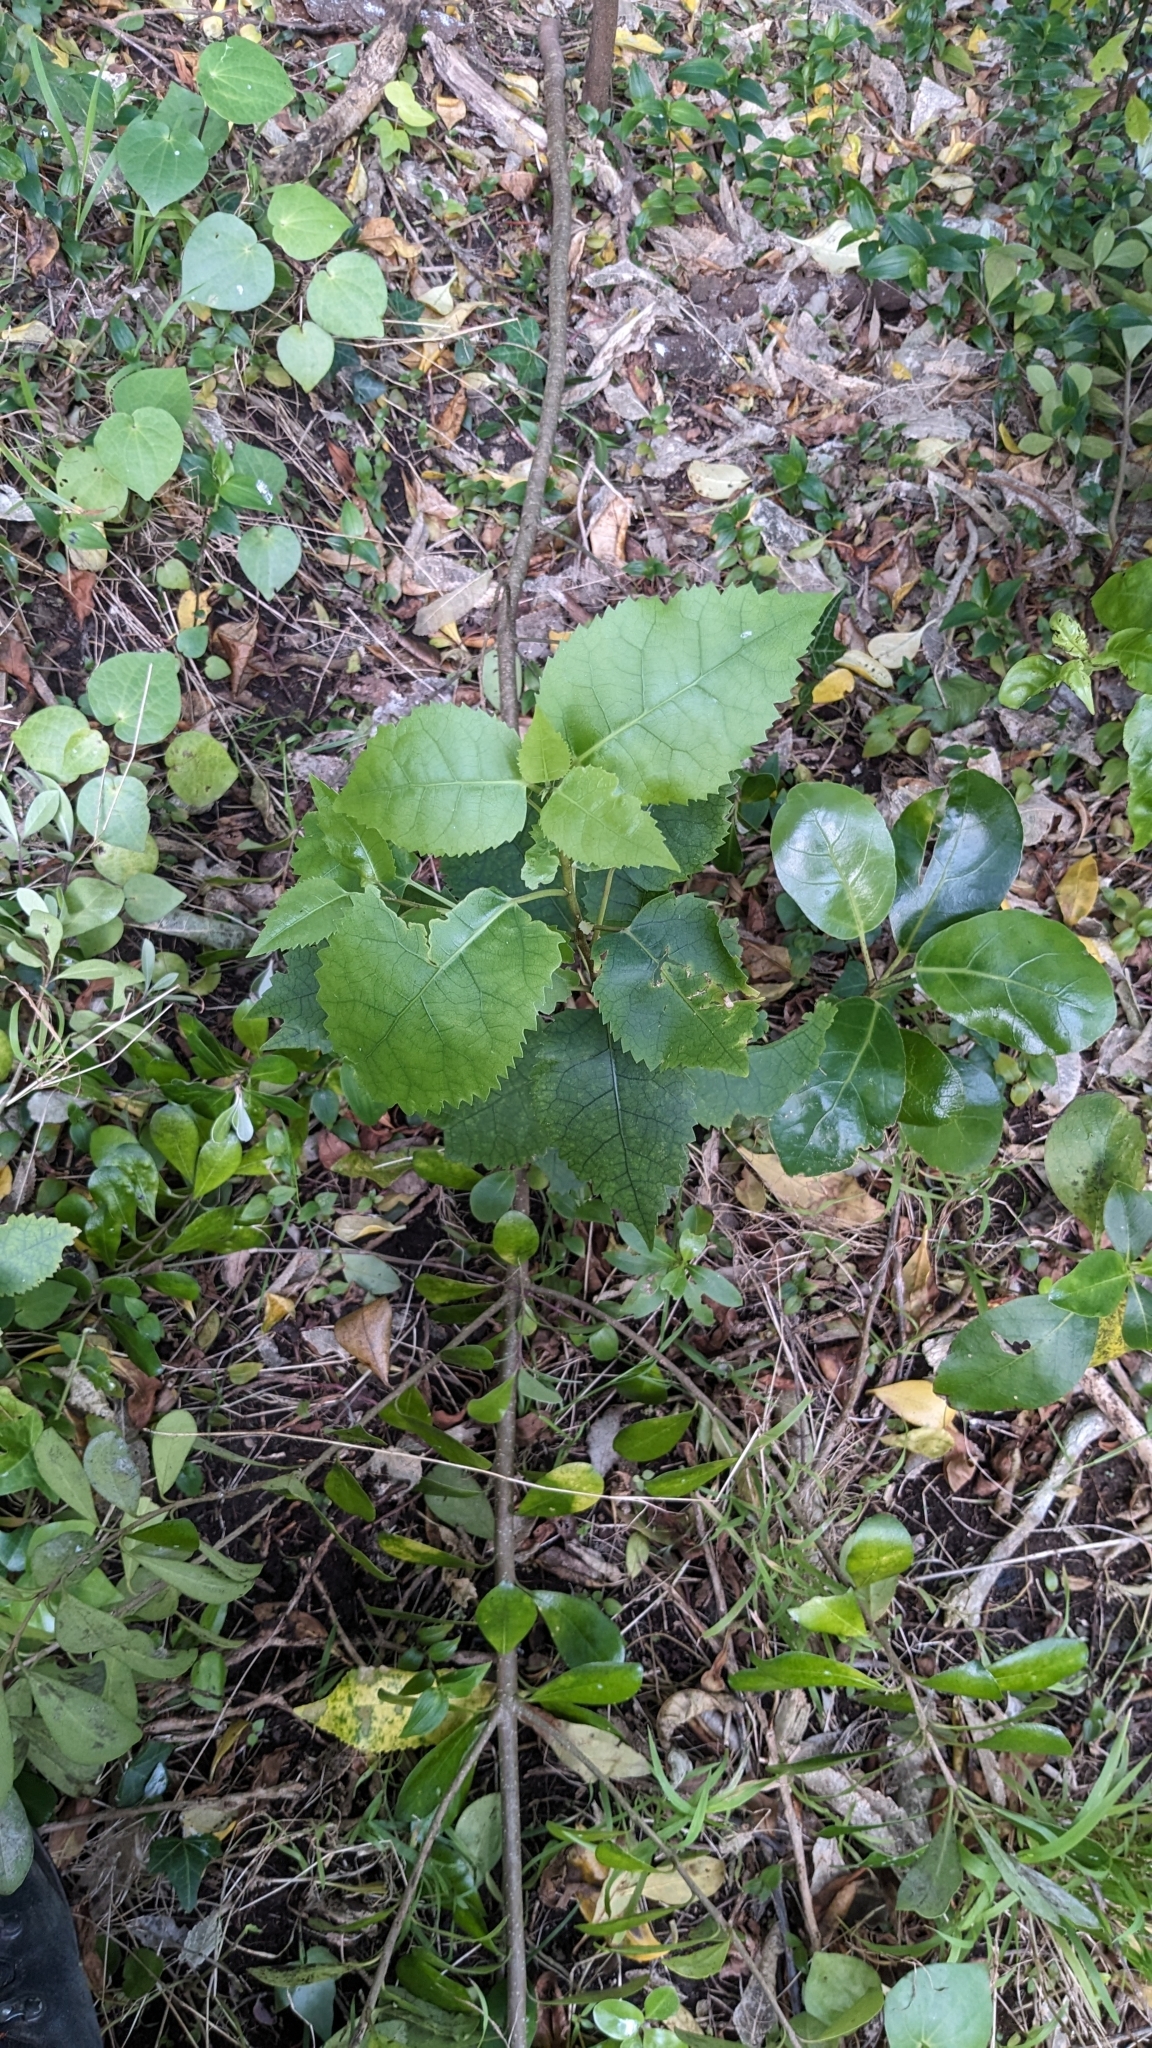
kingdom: Plantae
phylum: Tracheophyta
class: Magnoliopsida
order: Malvales
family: Malvaceae
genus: Hoheria
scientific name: Hoheria populnea
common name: Lacebark
